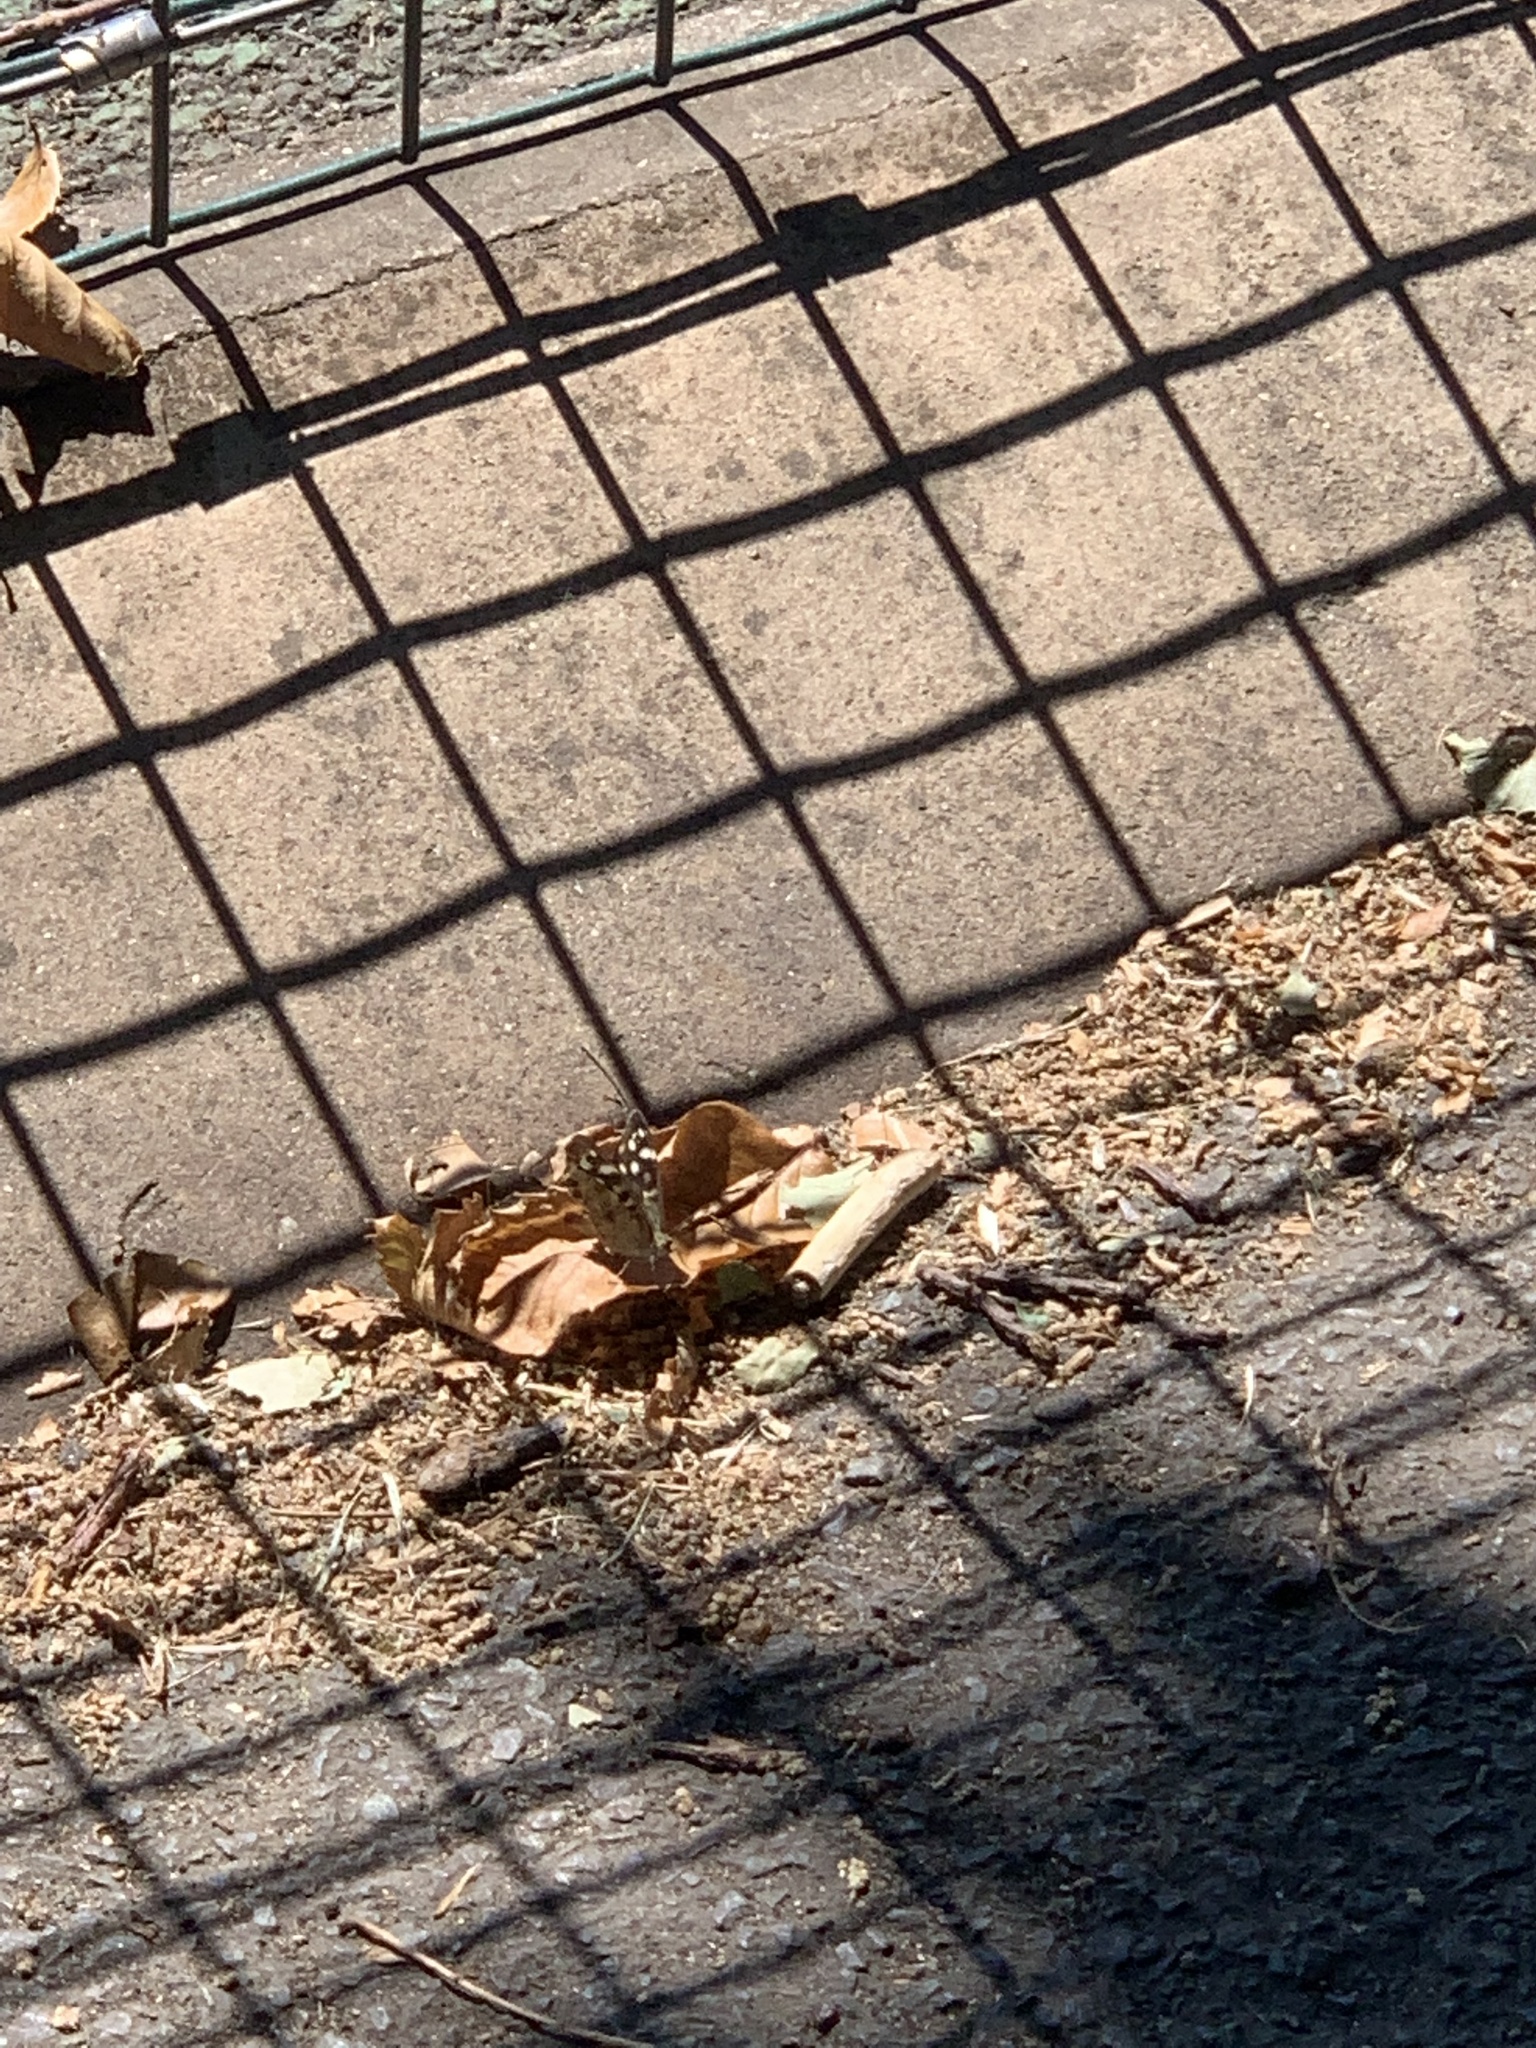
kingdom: Animalia
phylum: Arthropoda
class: Insecta
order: Lepidoptera
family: Nymphalidae
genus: Pararge
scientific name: Pararge aegeria
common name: Speckled wood
